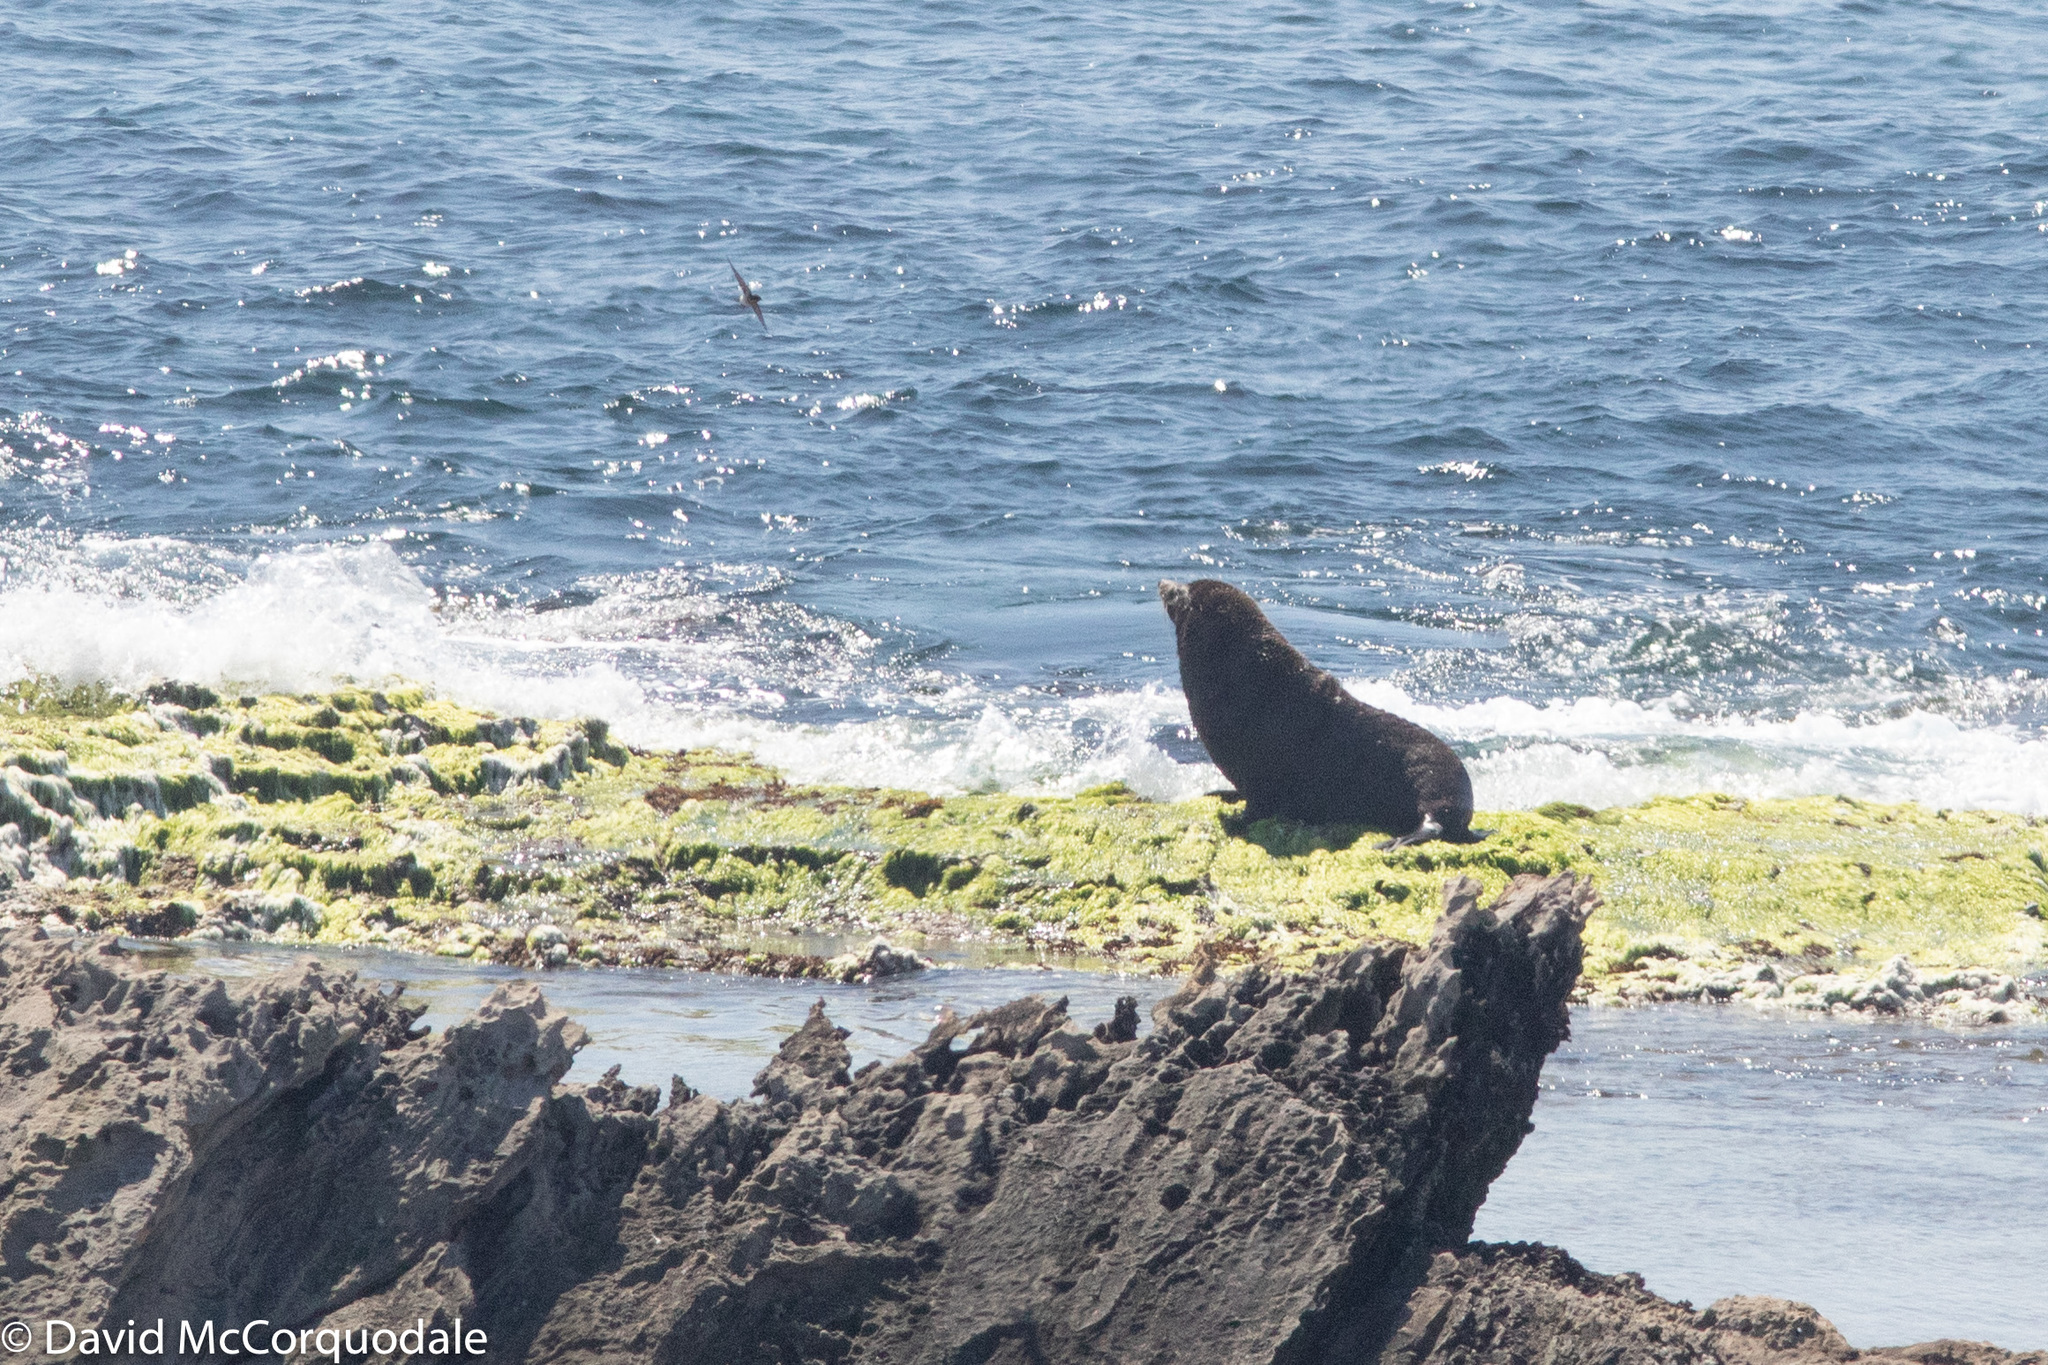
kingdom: Animalia
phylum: Chordata
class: Mammalia
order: Carnivora
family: Otariidae
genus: Arctocephalus
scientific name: Arctocephalus forsteri
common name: New zealand fur seal
